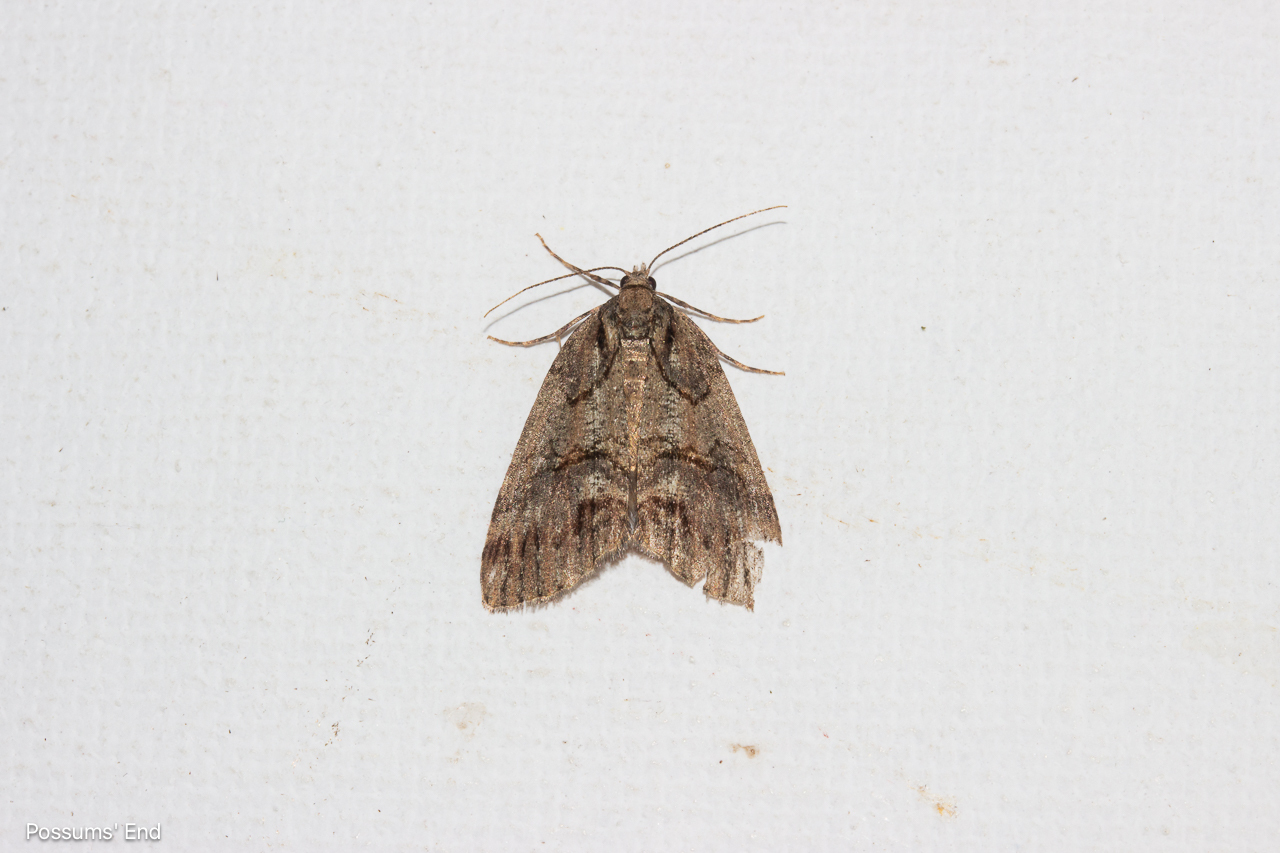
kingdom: Animalia
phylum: Arthropoda
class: Insecta
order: Lepidoptera
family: Geometridae
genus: Chalastra
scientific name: Chalastra ochrea
